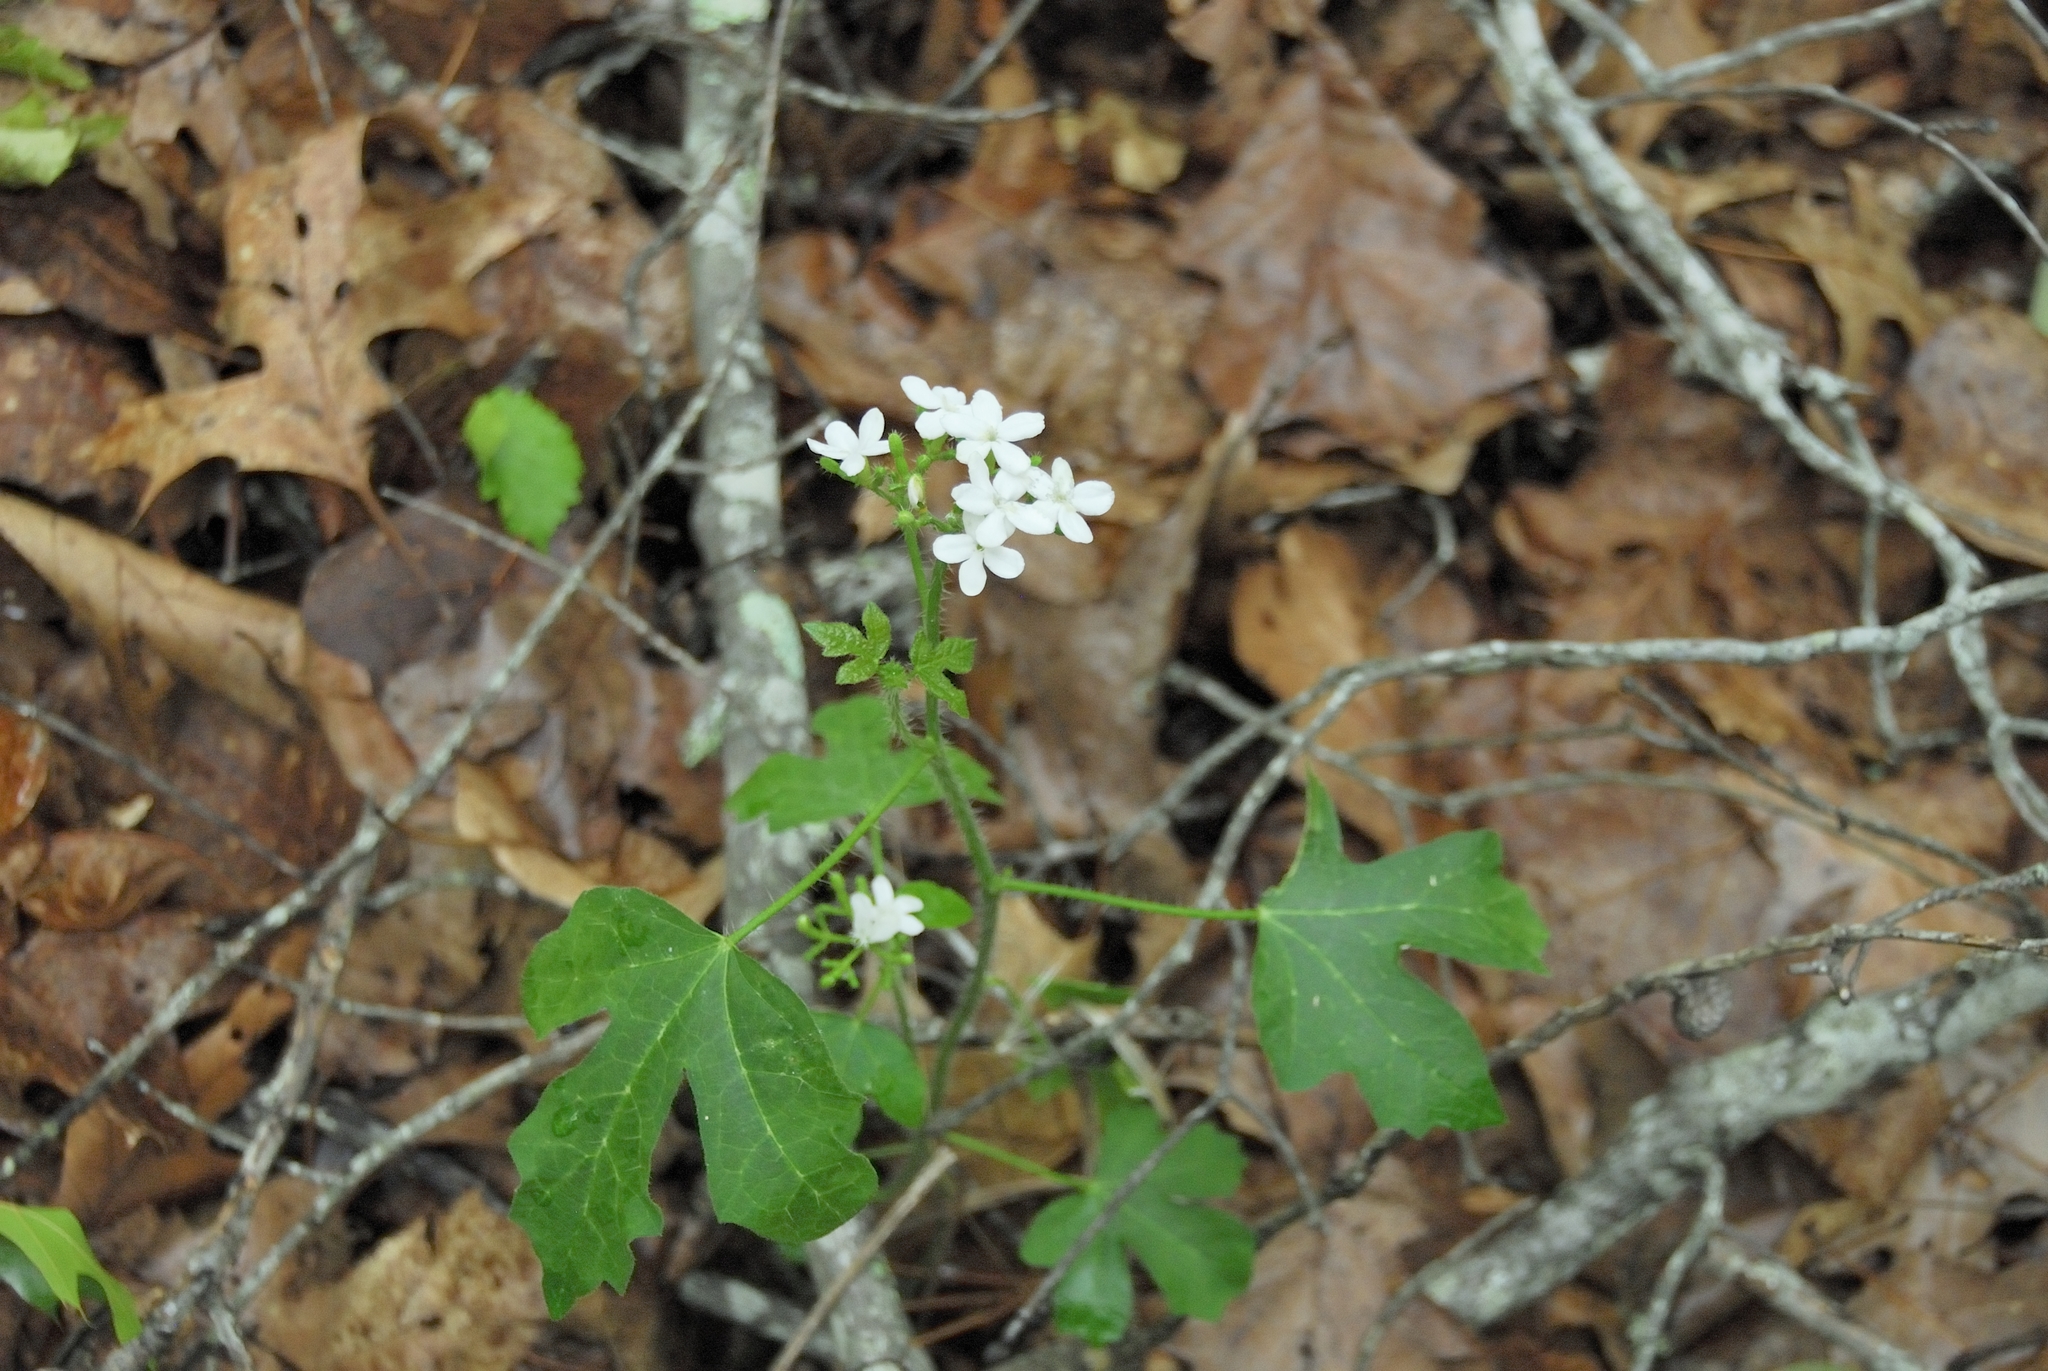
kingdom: Plantae
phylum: Tracheophyta
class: Magnoliopsida
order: Malpighiales
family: Euphorbiaceae
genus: Cnidoscolus
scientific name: Cnidoscolus stimulosus
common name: Bull-nettle
